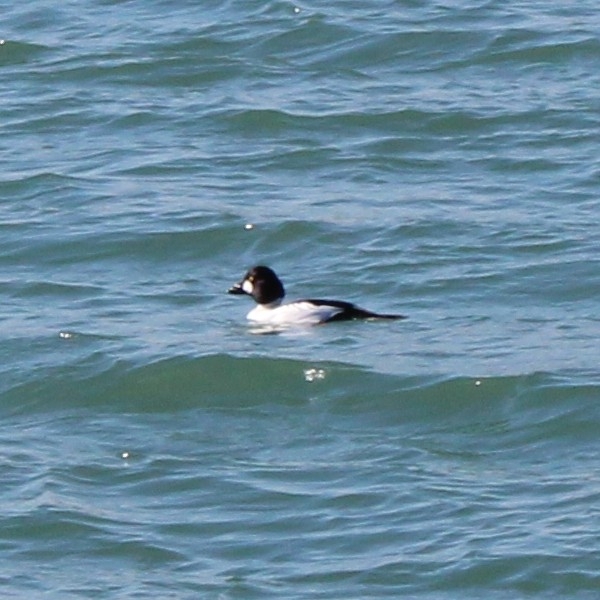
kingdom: Animalia
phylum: Chordata
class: Aves
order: Anseriformes
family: Anatidae
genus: Bucephala
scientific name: Bucephala clangula
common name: Common goldeneye
